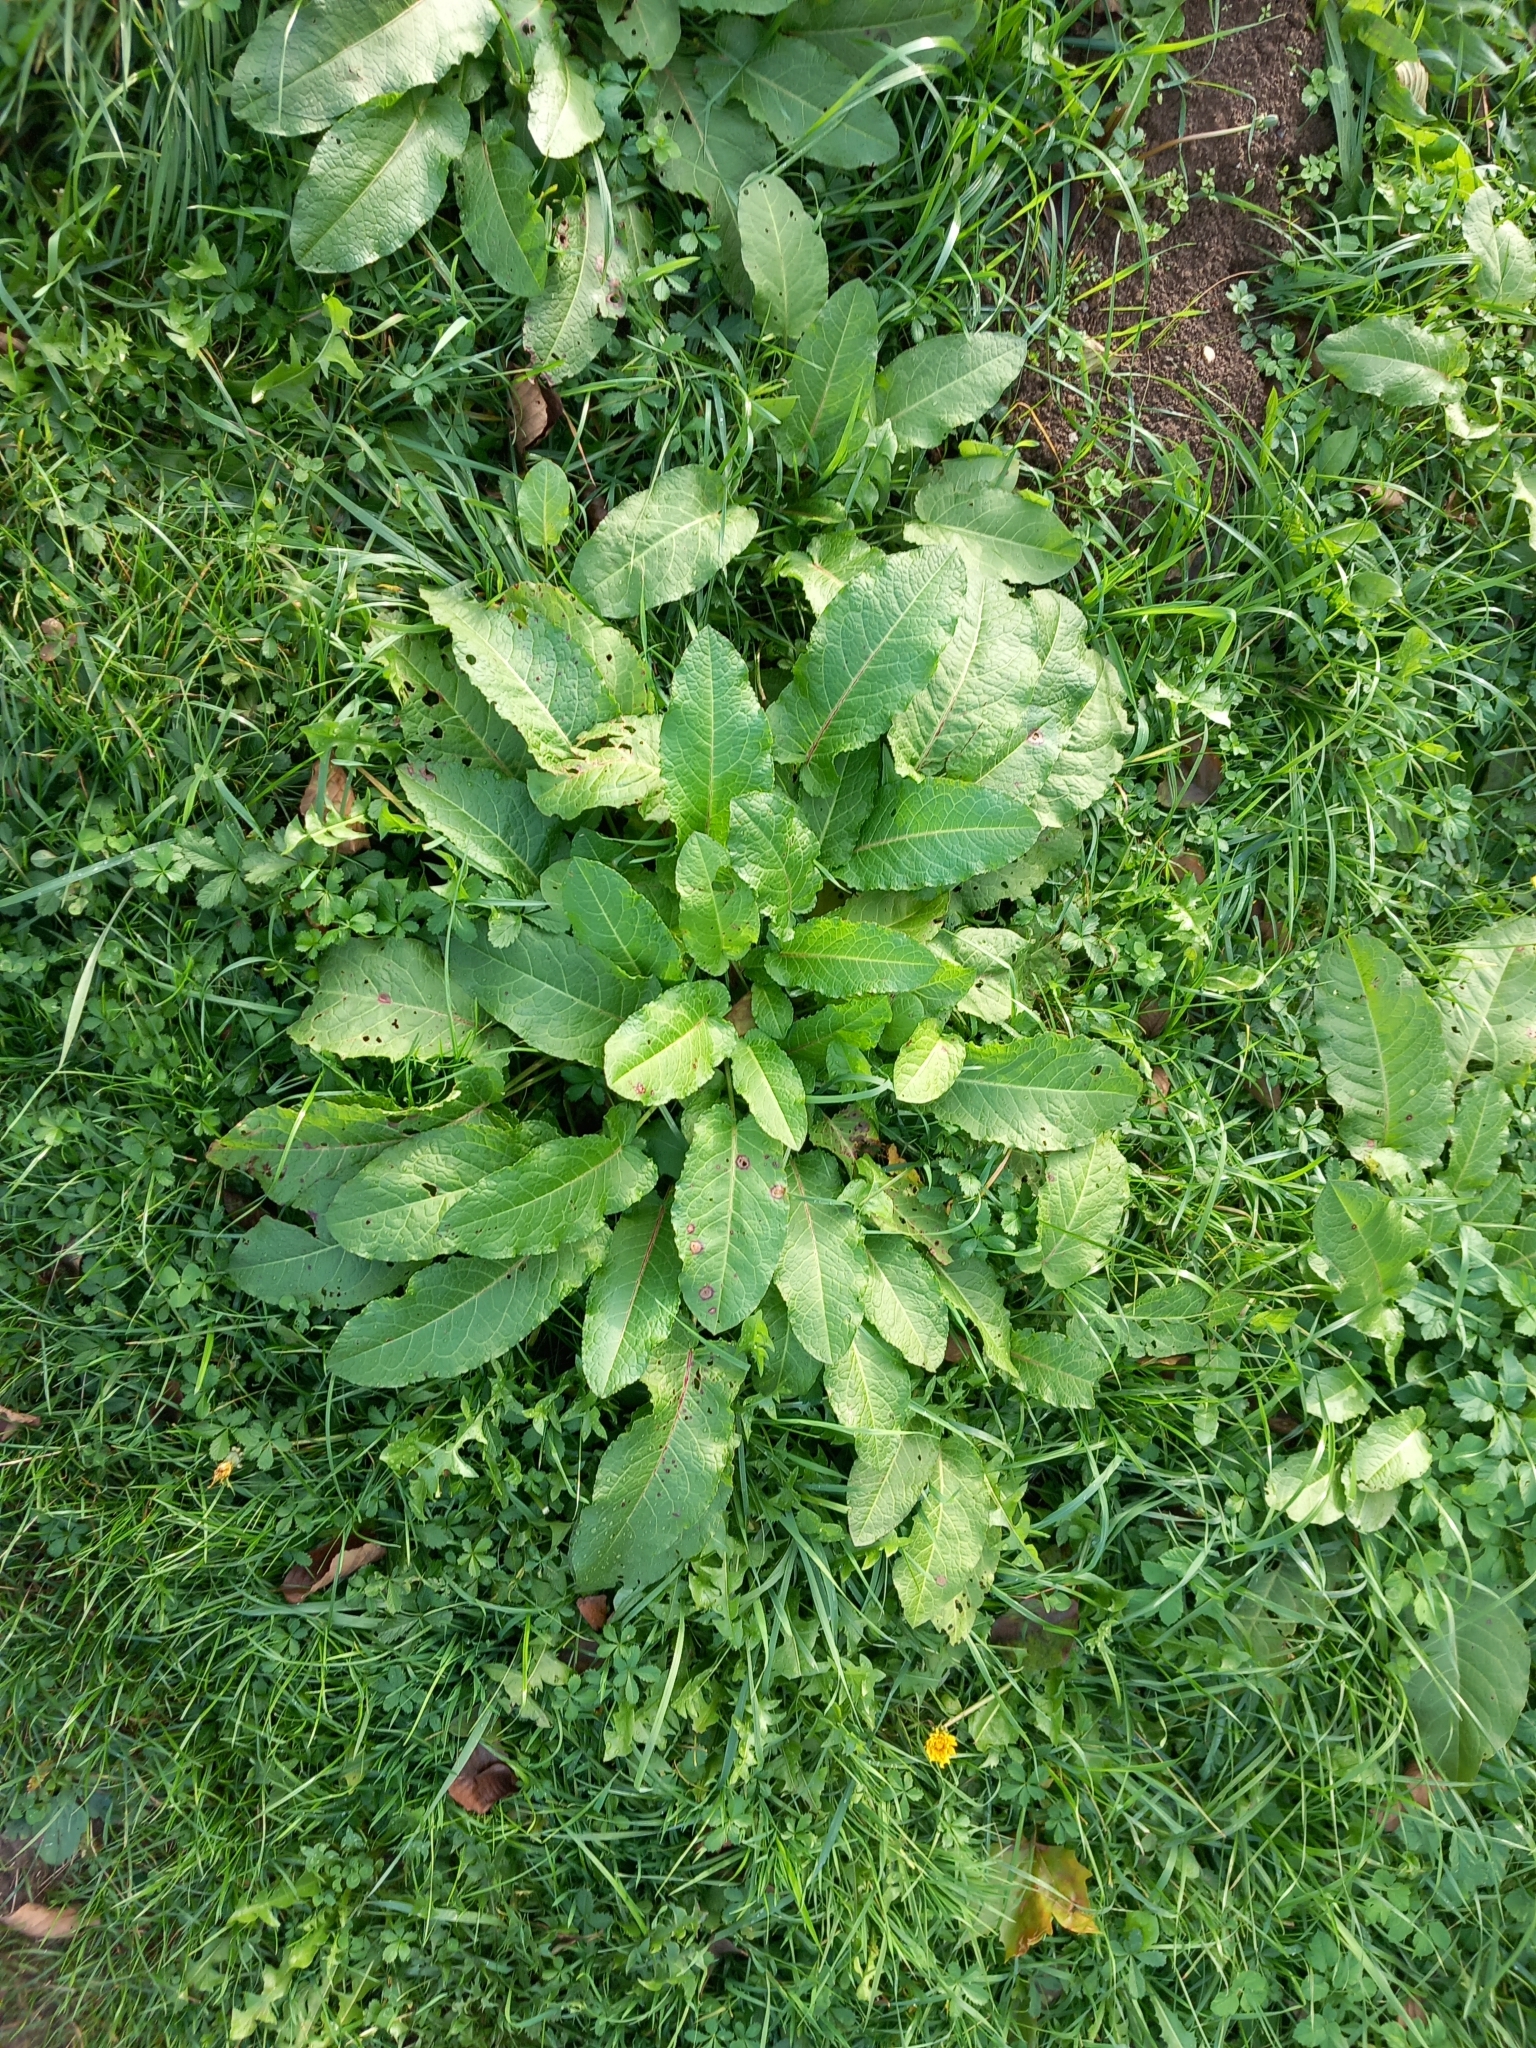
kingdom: Plantae
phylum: Tracheophyta
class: Magnoliopsida
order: Caryophyllales
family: Polygonaceae
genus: Rumex
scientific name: Rumex obtusifolius
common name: Bitter dock
